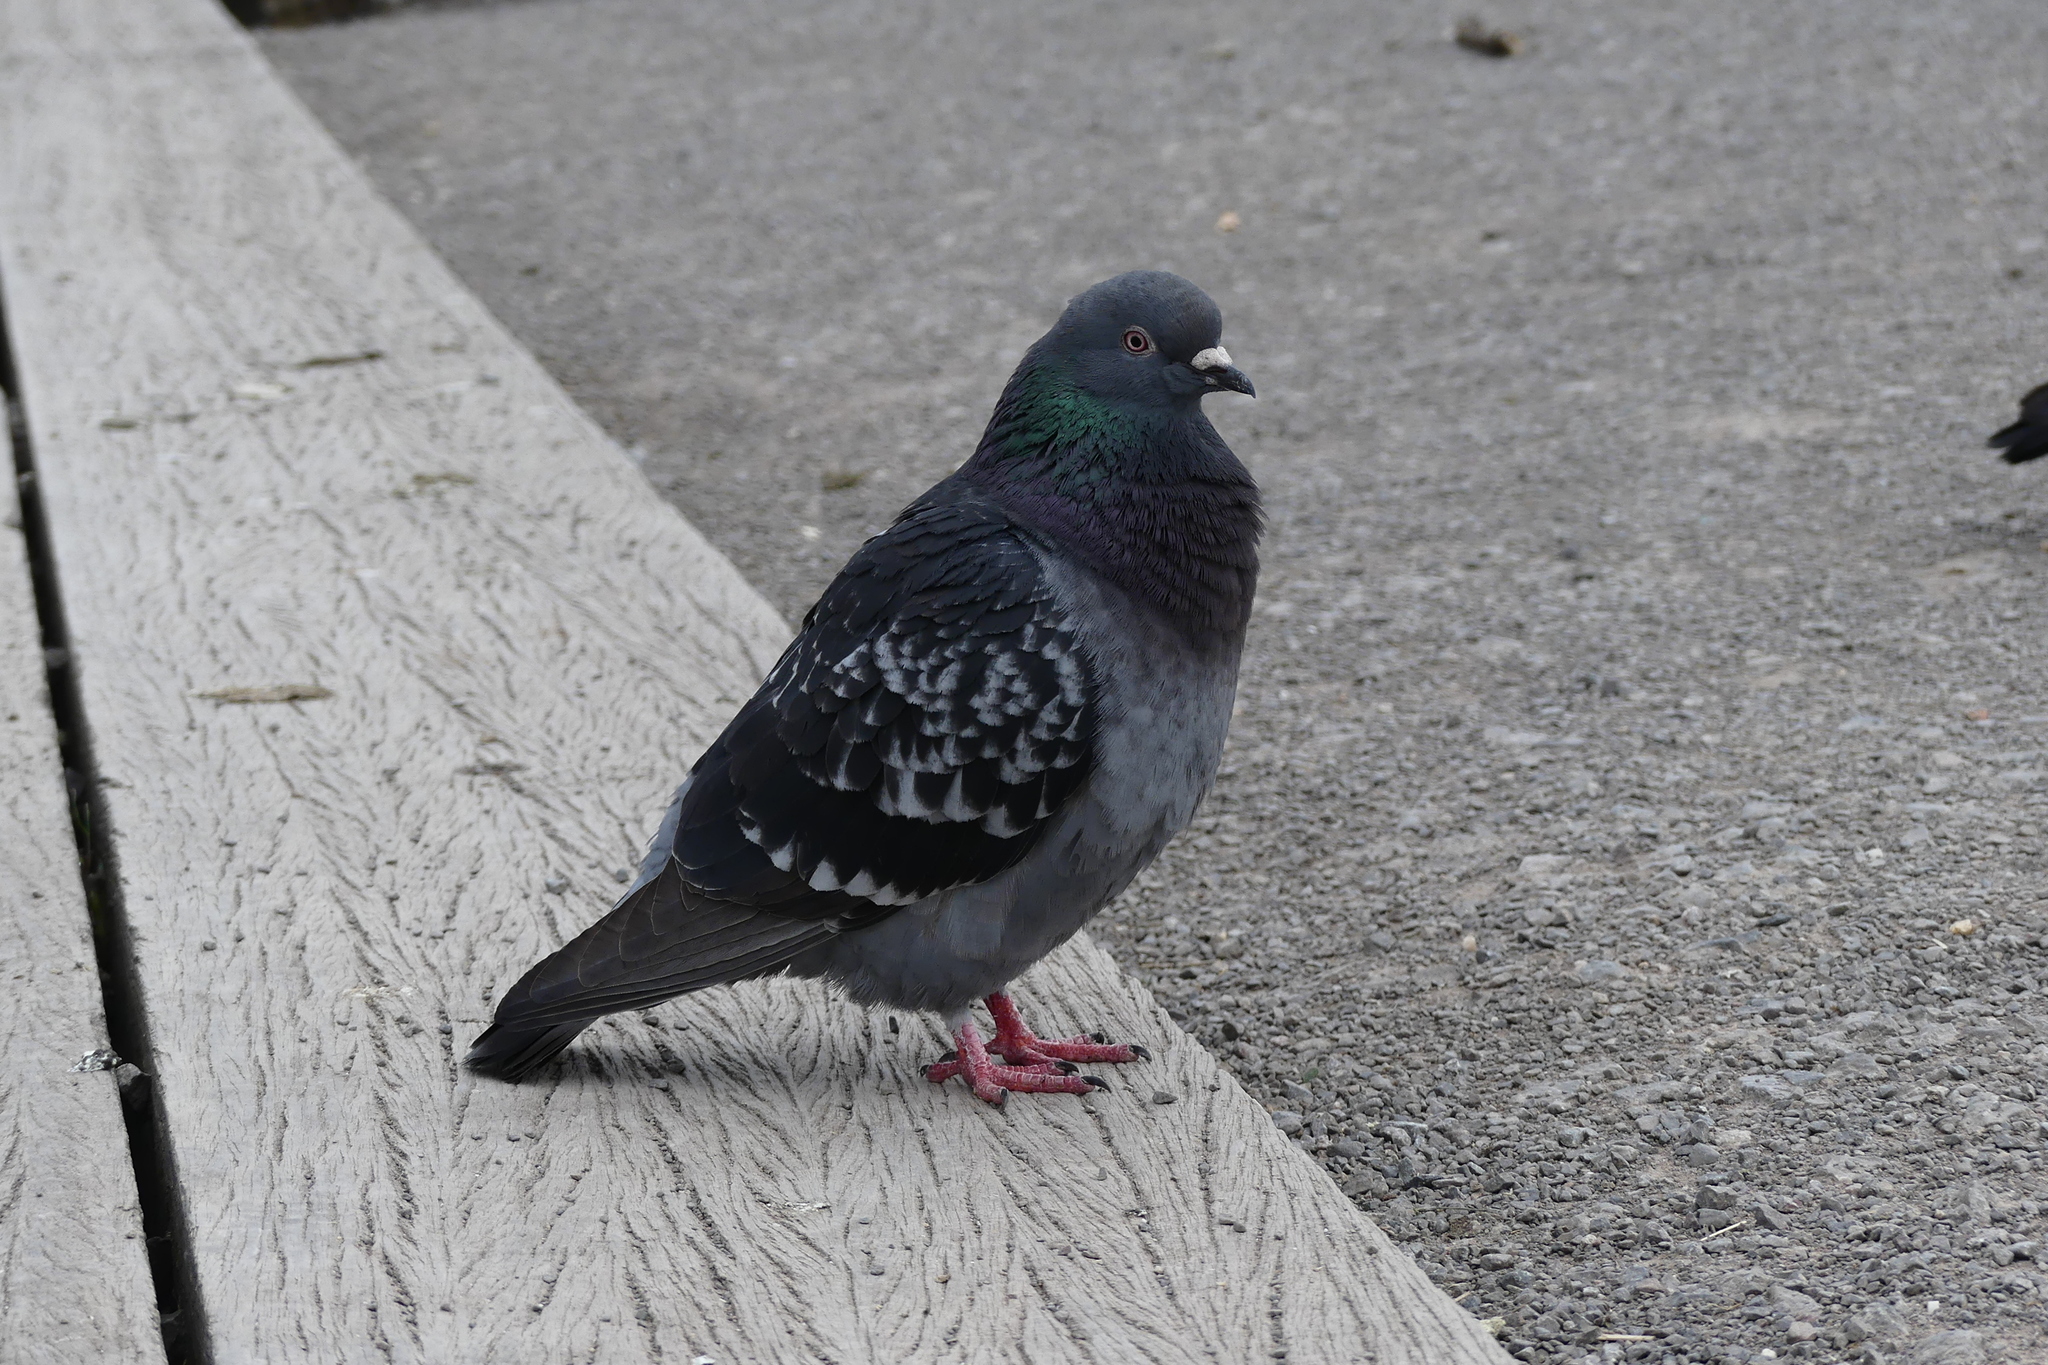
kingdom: Animalia
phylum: Chordata
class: Aves
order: Columbiformes
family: Columbidae
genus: Columba
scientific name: Columba livia
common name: Rock pigeon
